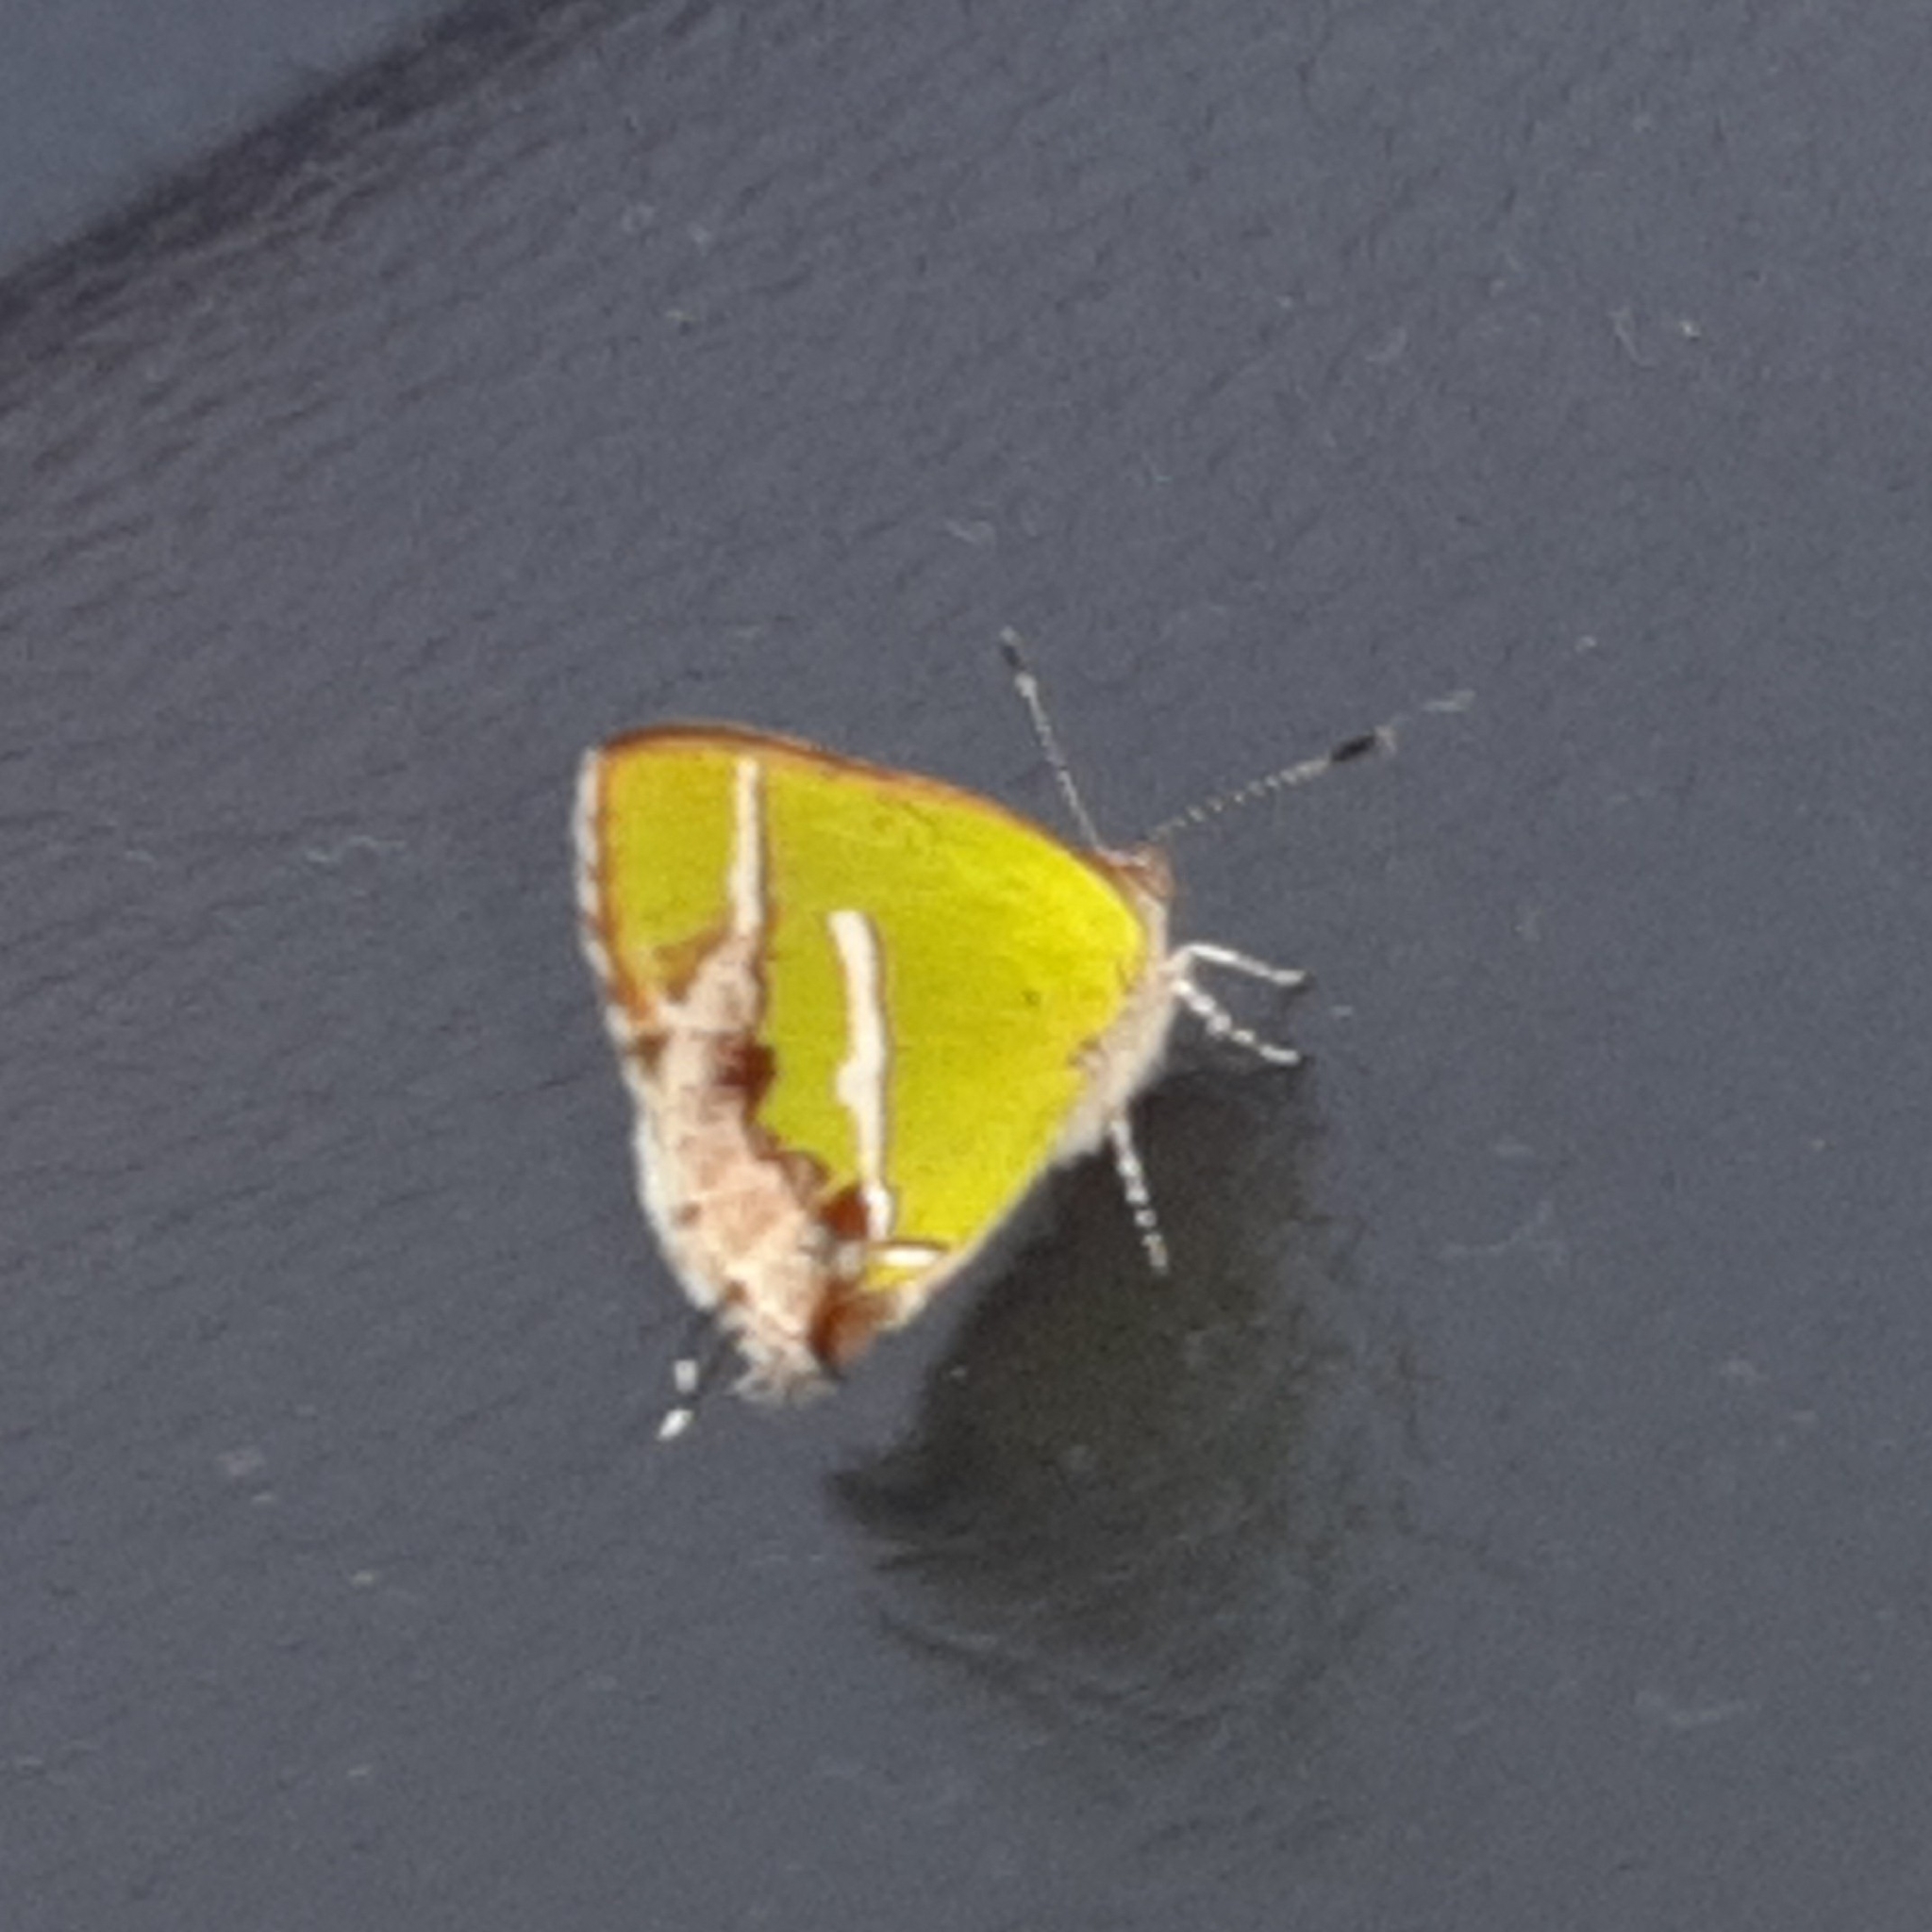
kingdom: Animalia
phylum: Arthropoda
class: Insecta
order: Lepidoptera
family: Lycaenidae
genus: Chlorostrymon
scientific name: Chlorostrymon simaethis
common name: Silver-banded hairstreak
